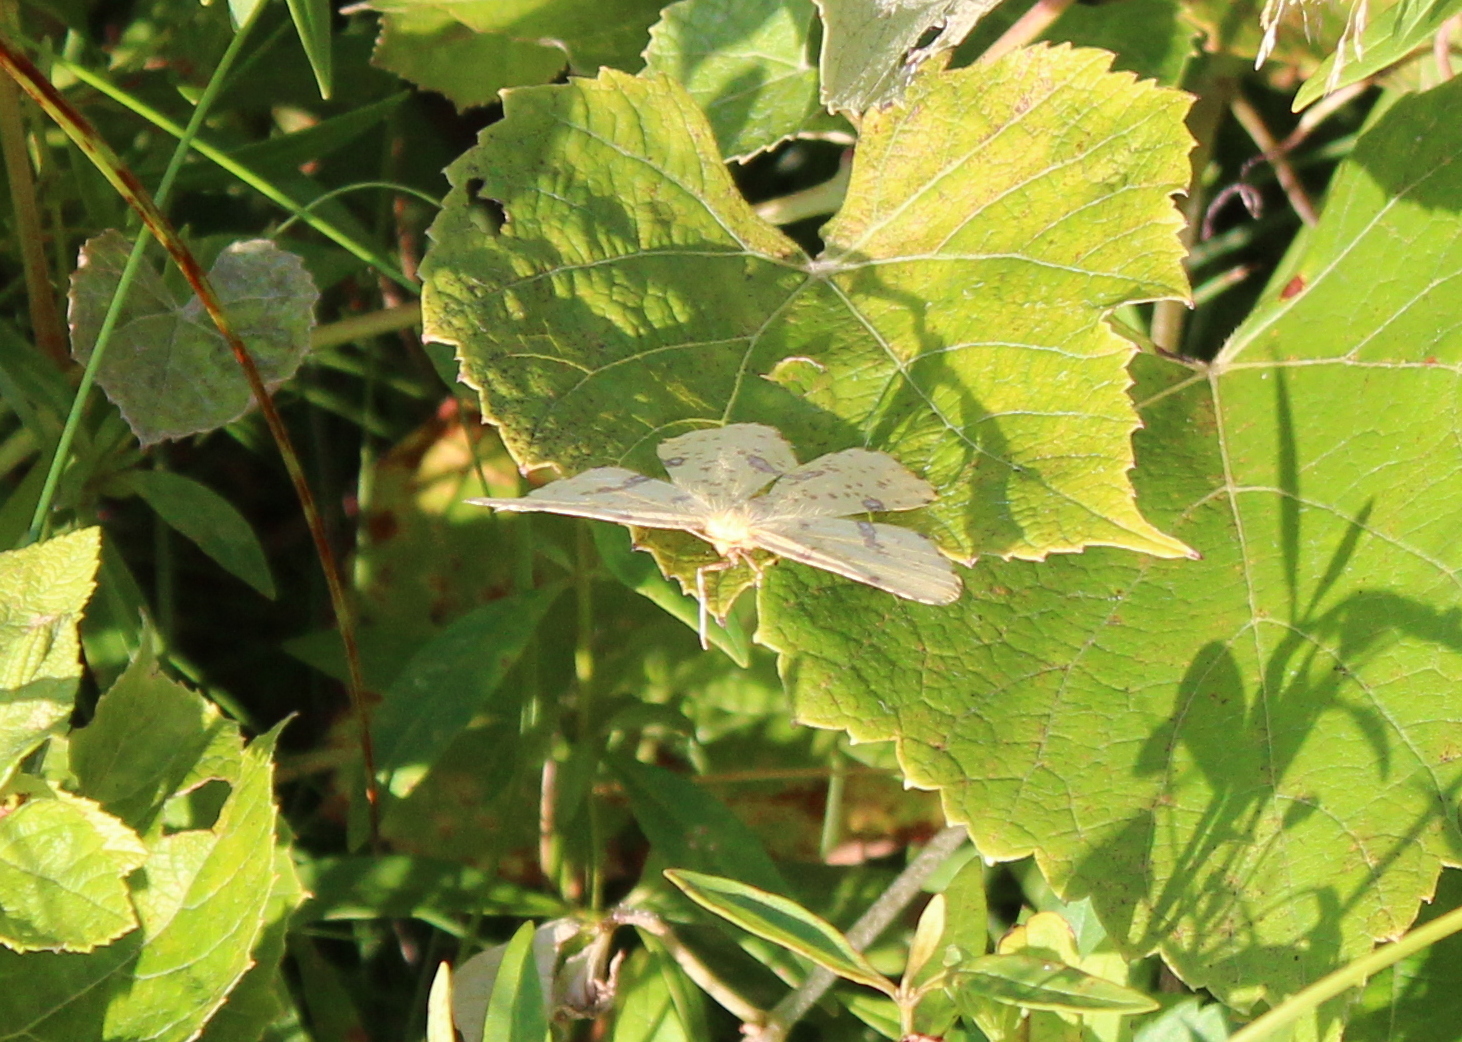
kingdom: Animalia
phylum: Arthropoda
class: Insecta
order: Lepidoptera
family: Geometridae
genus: Xanthotype
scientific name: Xanthotype
